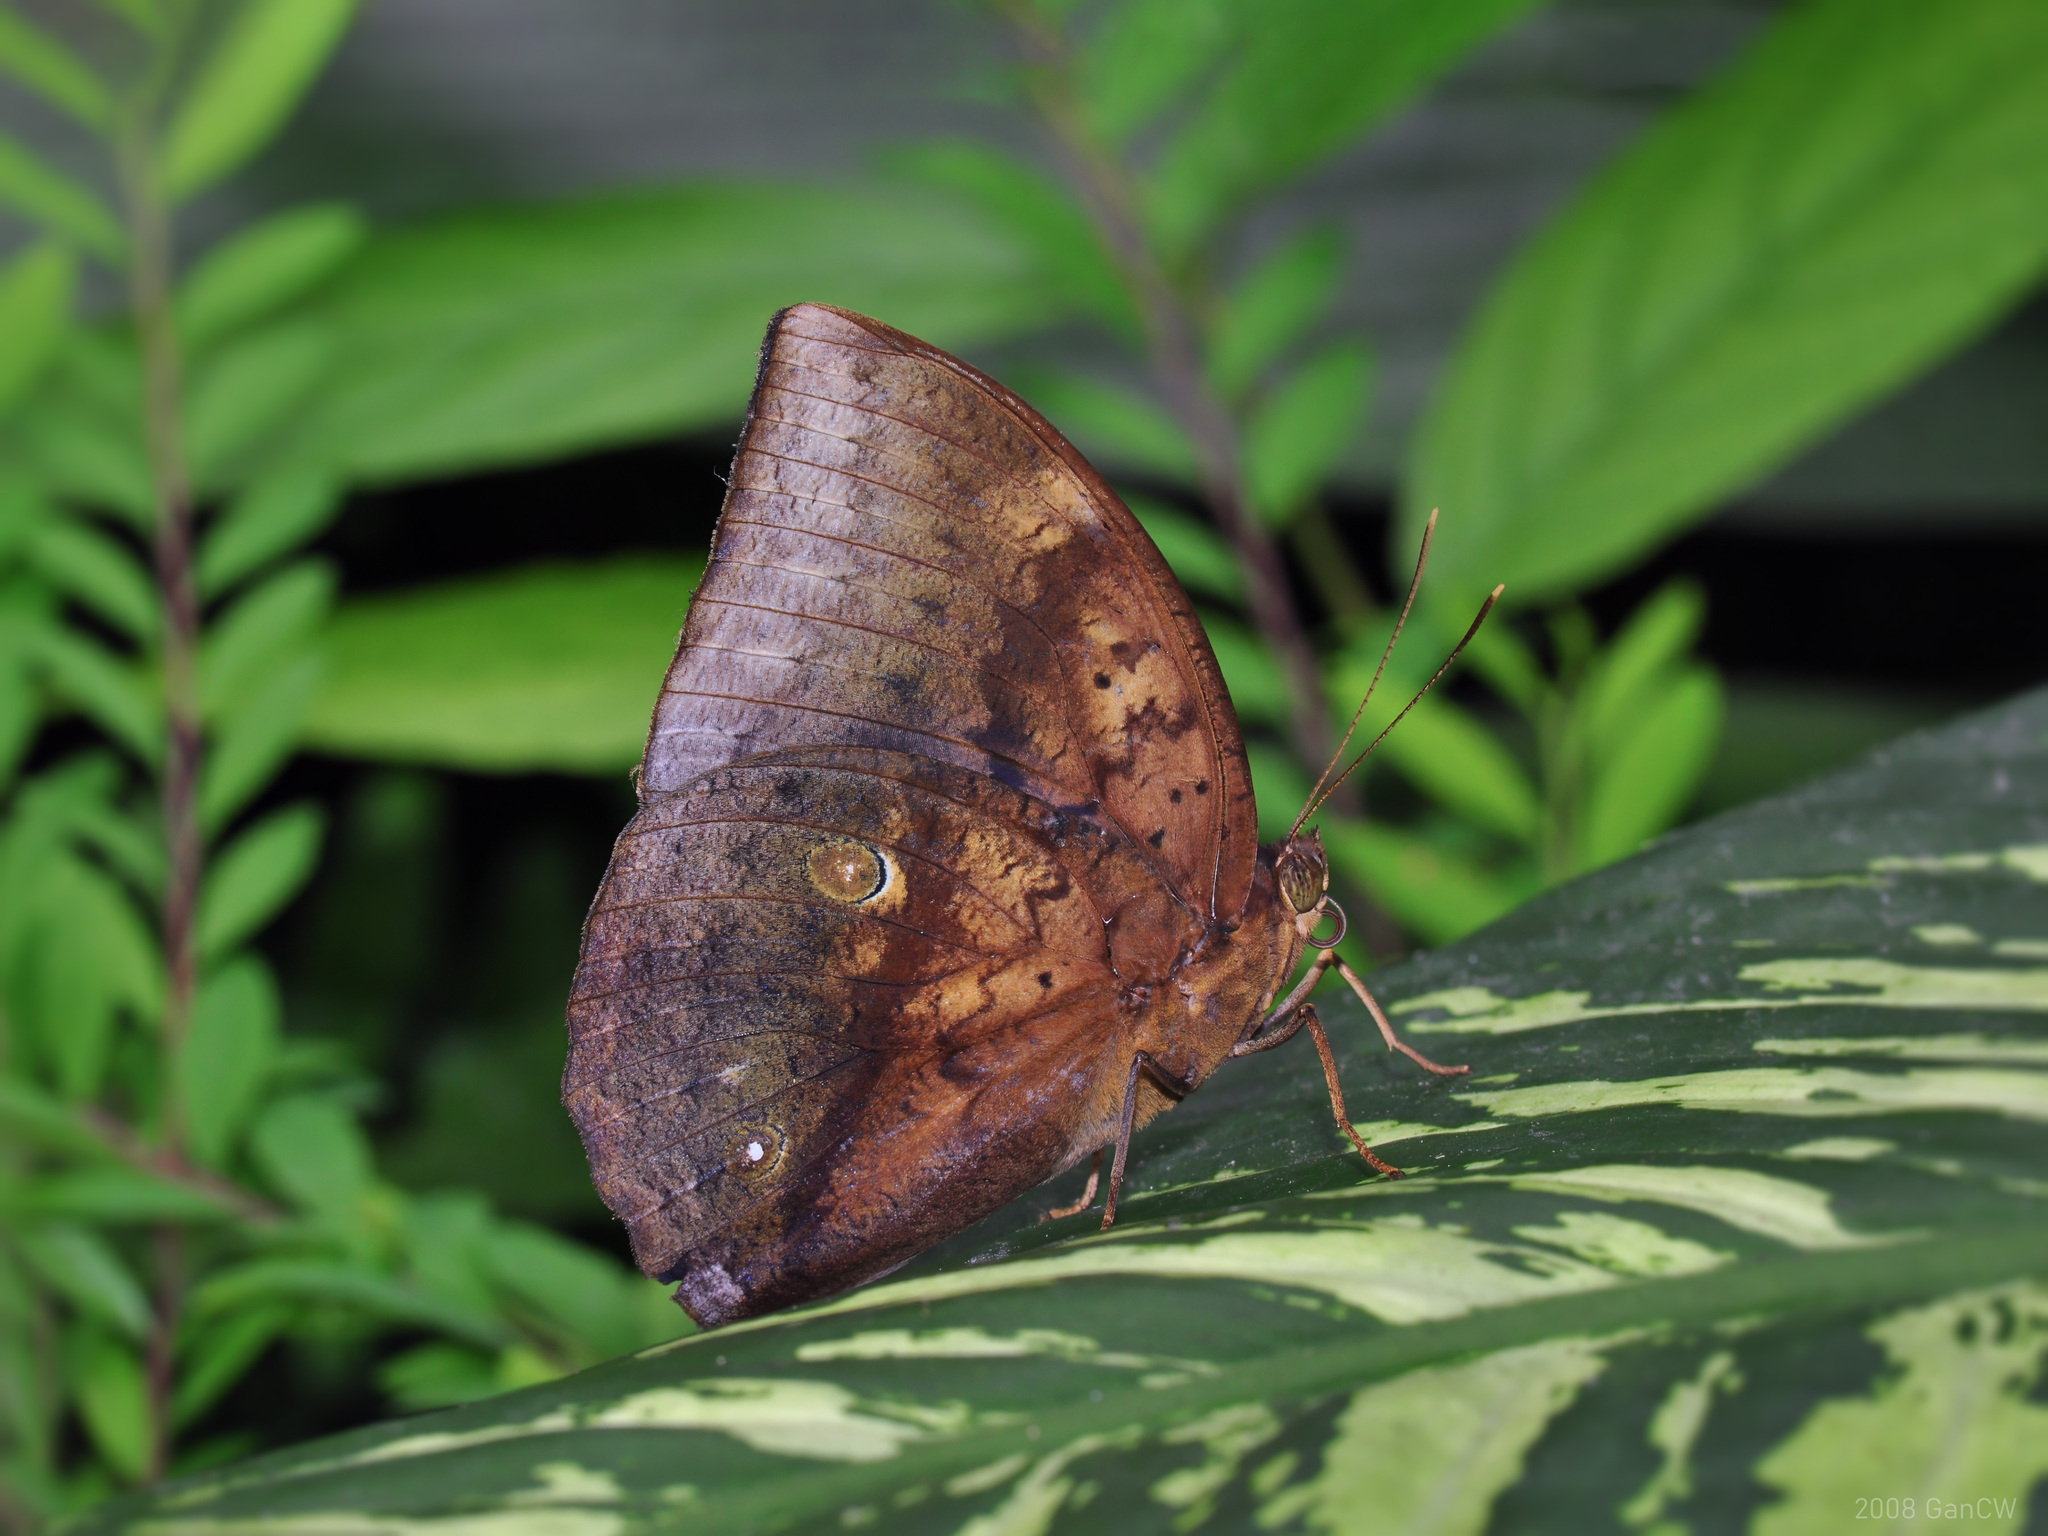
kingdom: Animalia
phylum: Arthropoda
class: Insecta
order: Lepidoptera
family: Nymphalidae
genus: Discophora
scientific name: Discophora timora
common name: Great duffer
